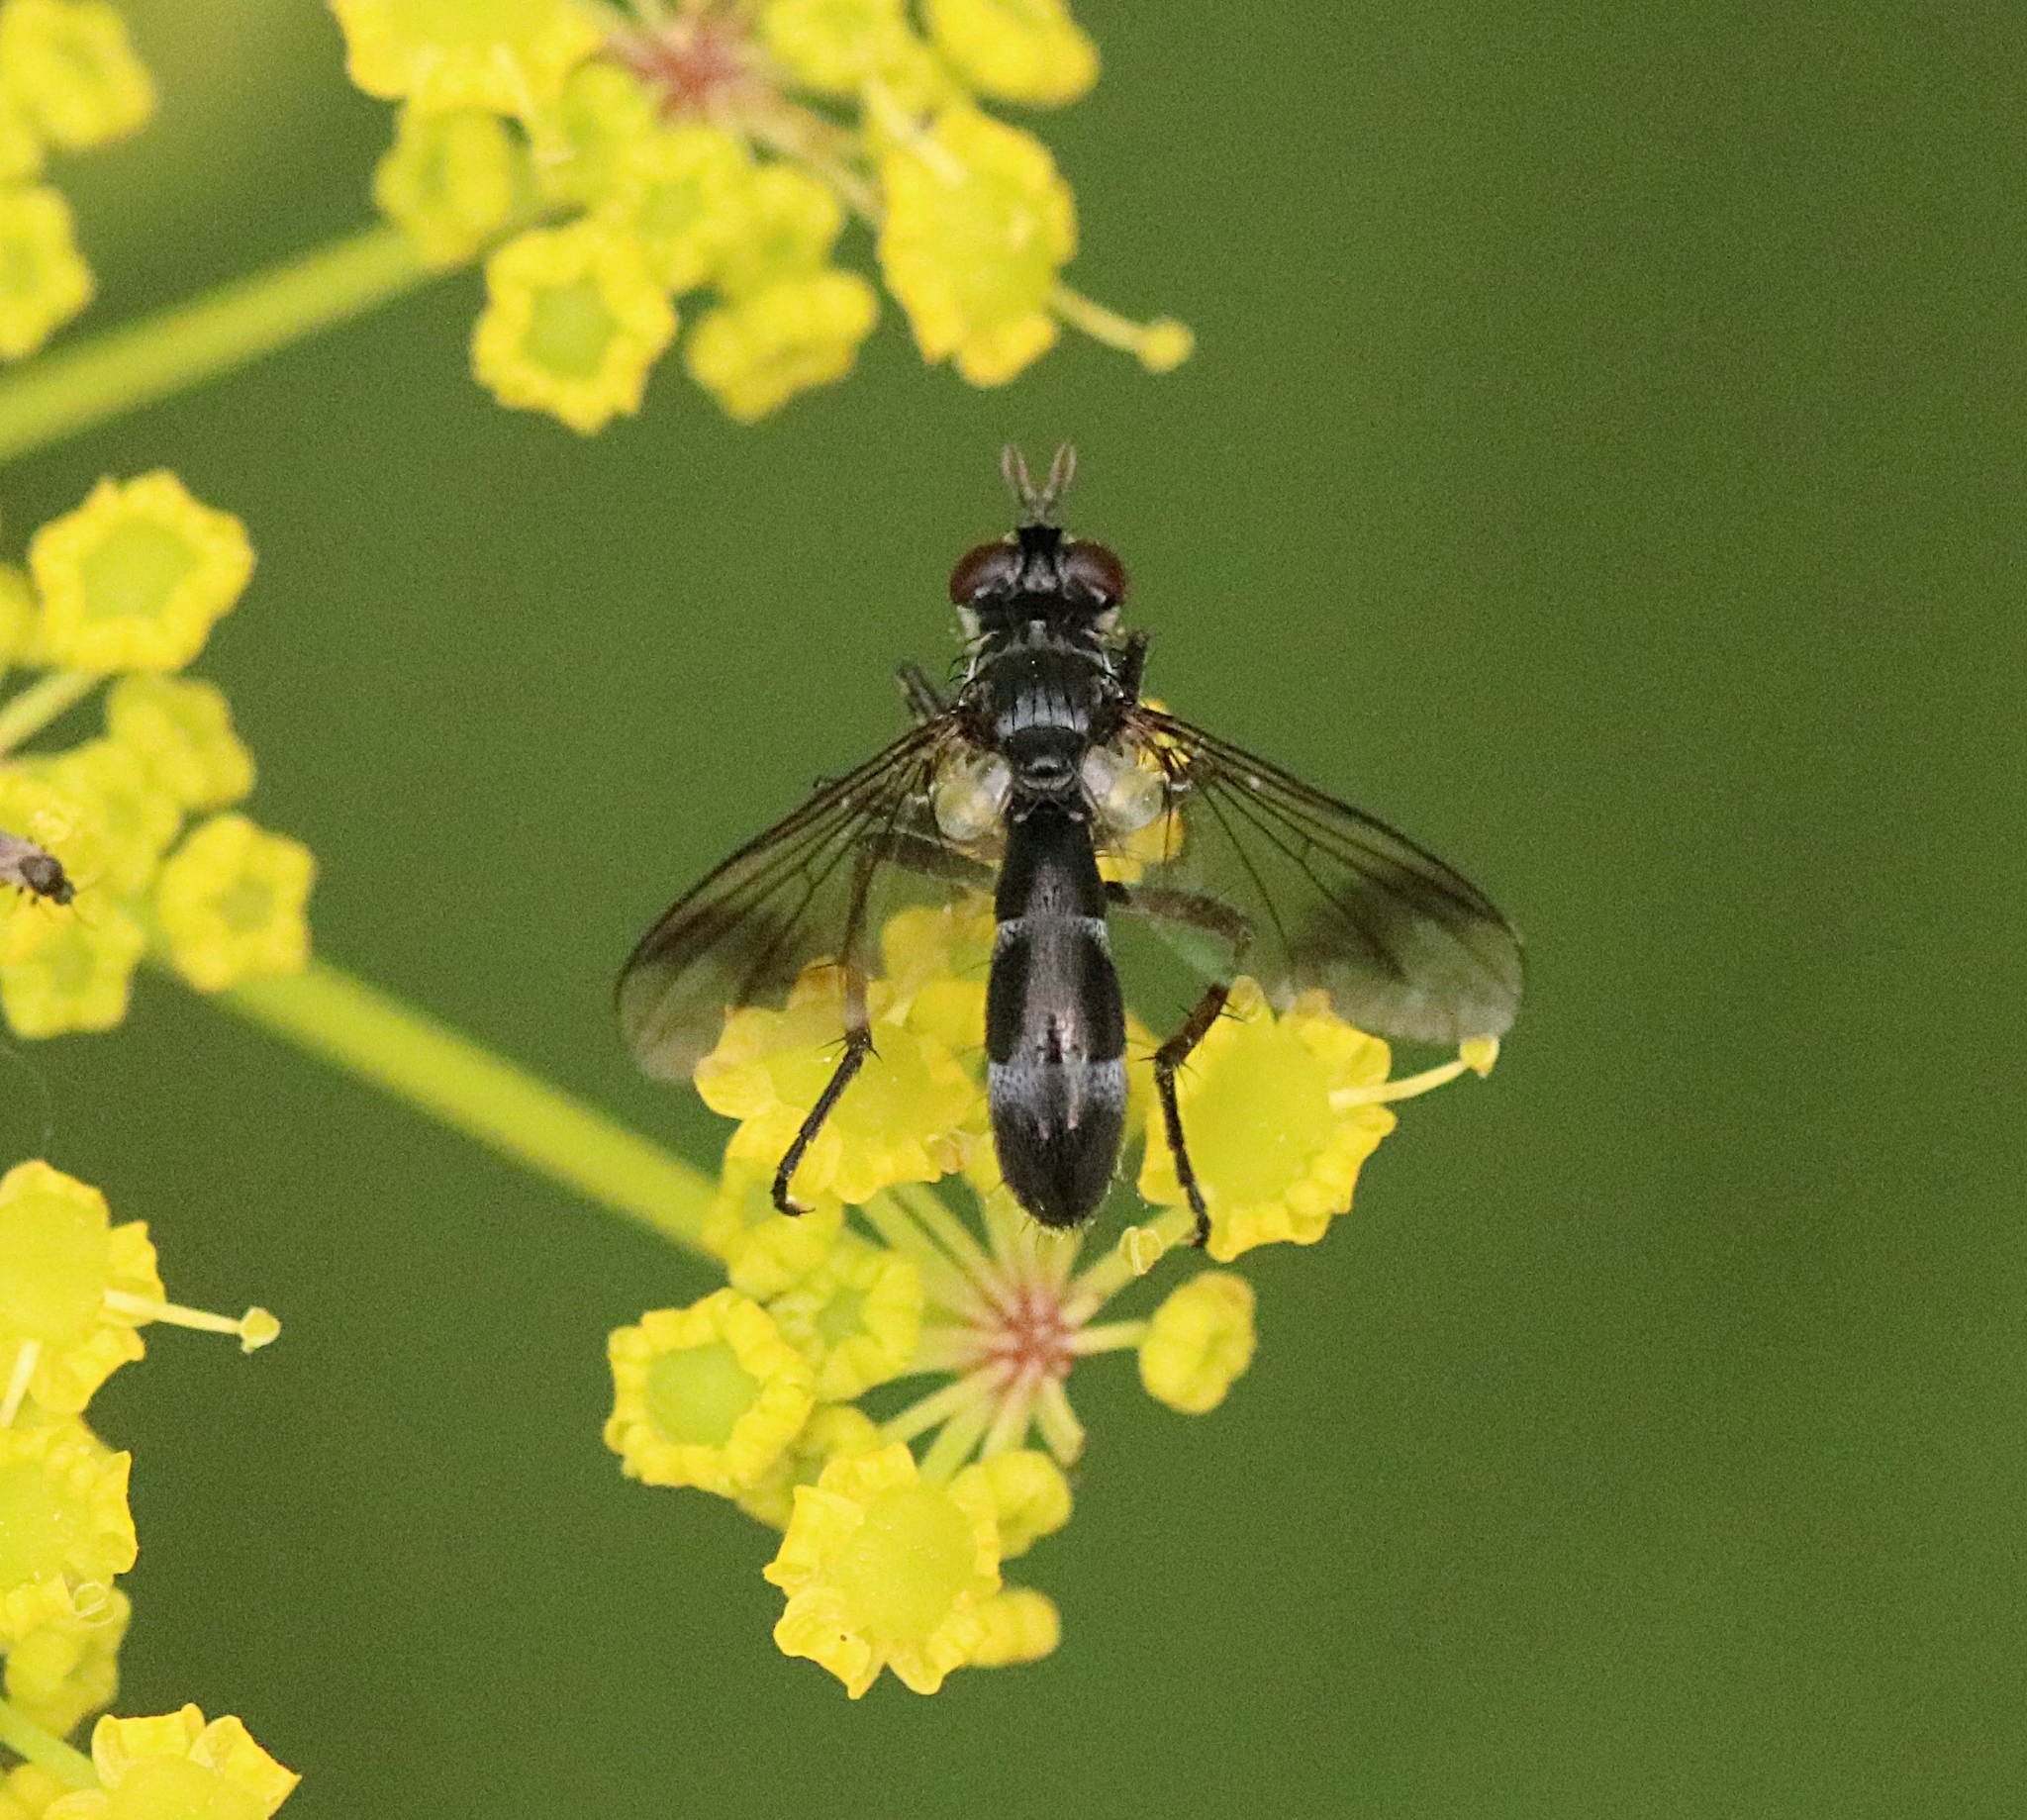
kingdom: Animalia
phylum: Arthropoda
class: Insecta
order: Diptera
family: Tachinidae
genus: Lophosia
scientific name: Lophosia fasciata
